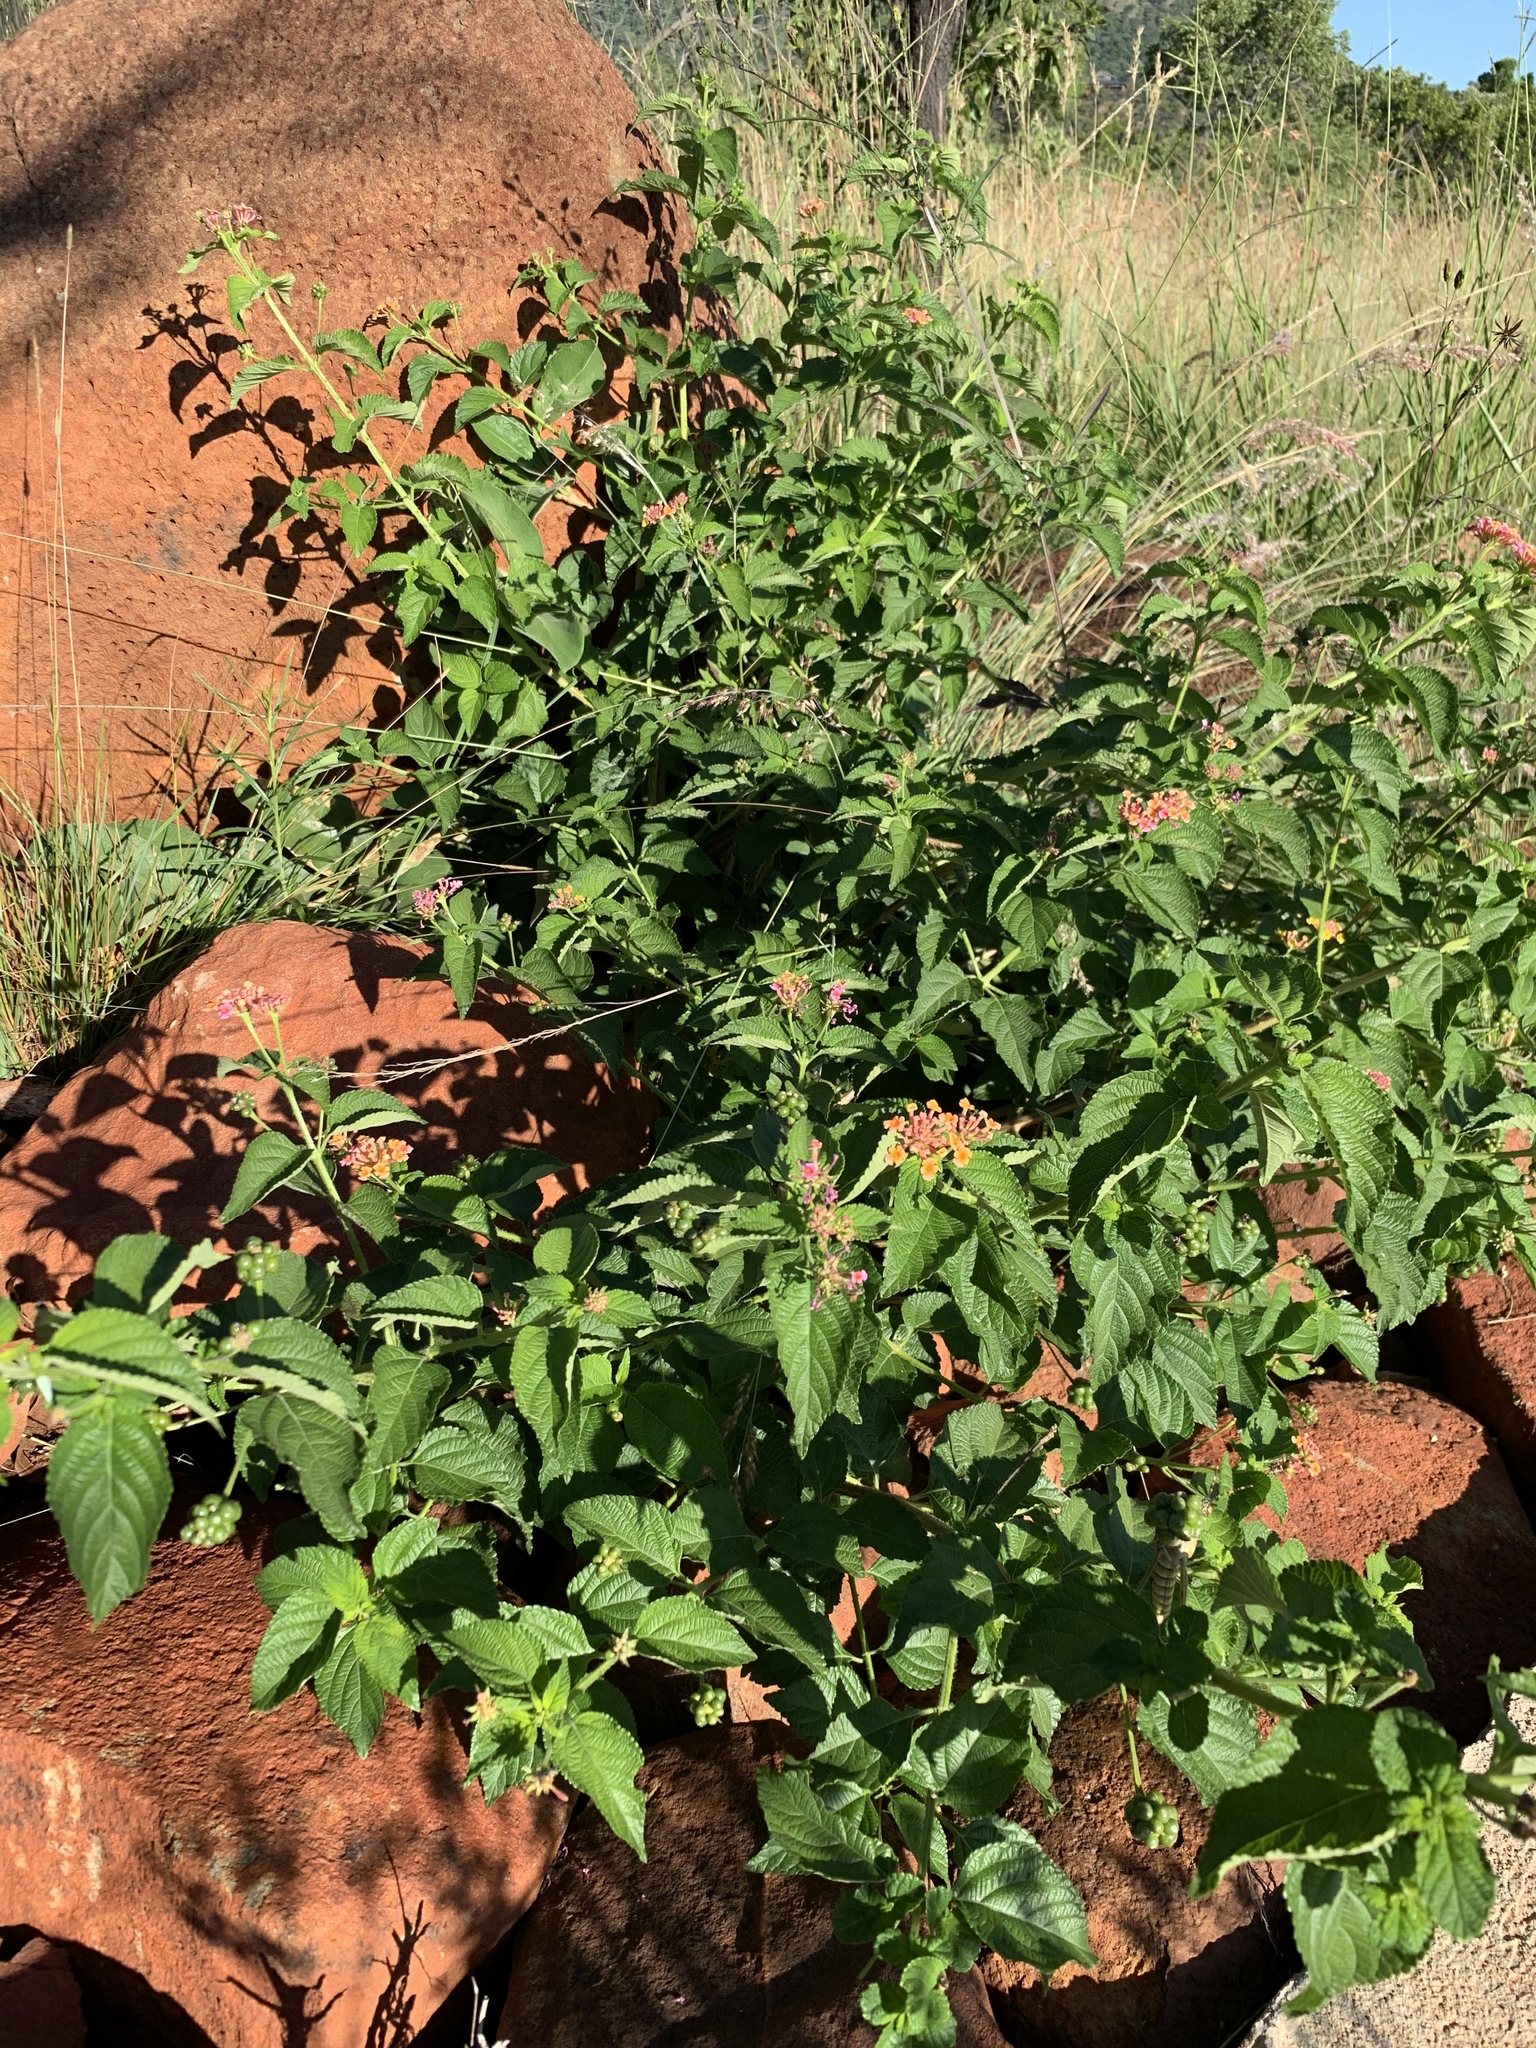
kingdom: Plantae
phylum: Tracheophyta
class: Magnoliopsida
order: Lamiales
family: Verbenaceae
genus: Lantana
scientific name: Lantana camara
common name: Lantana
